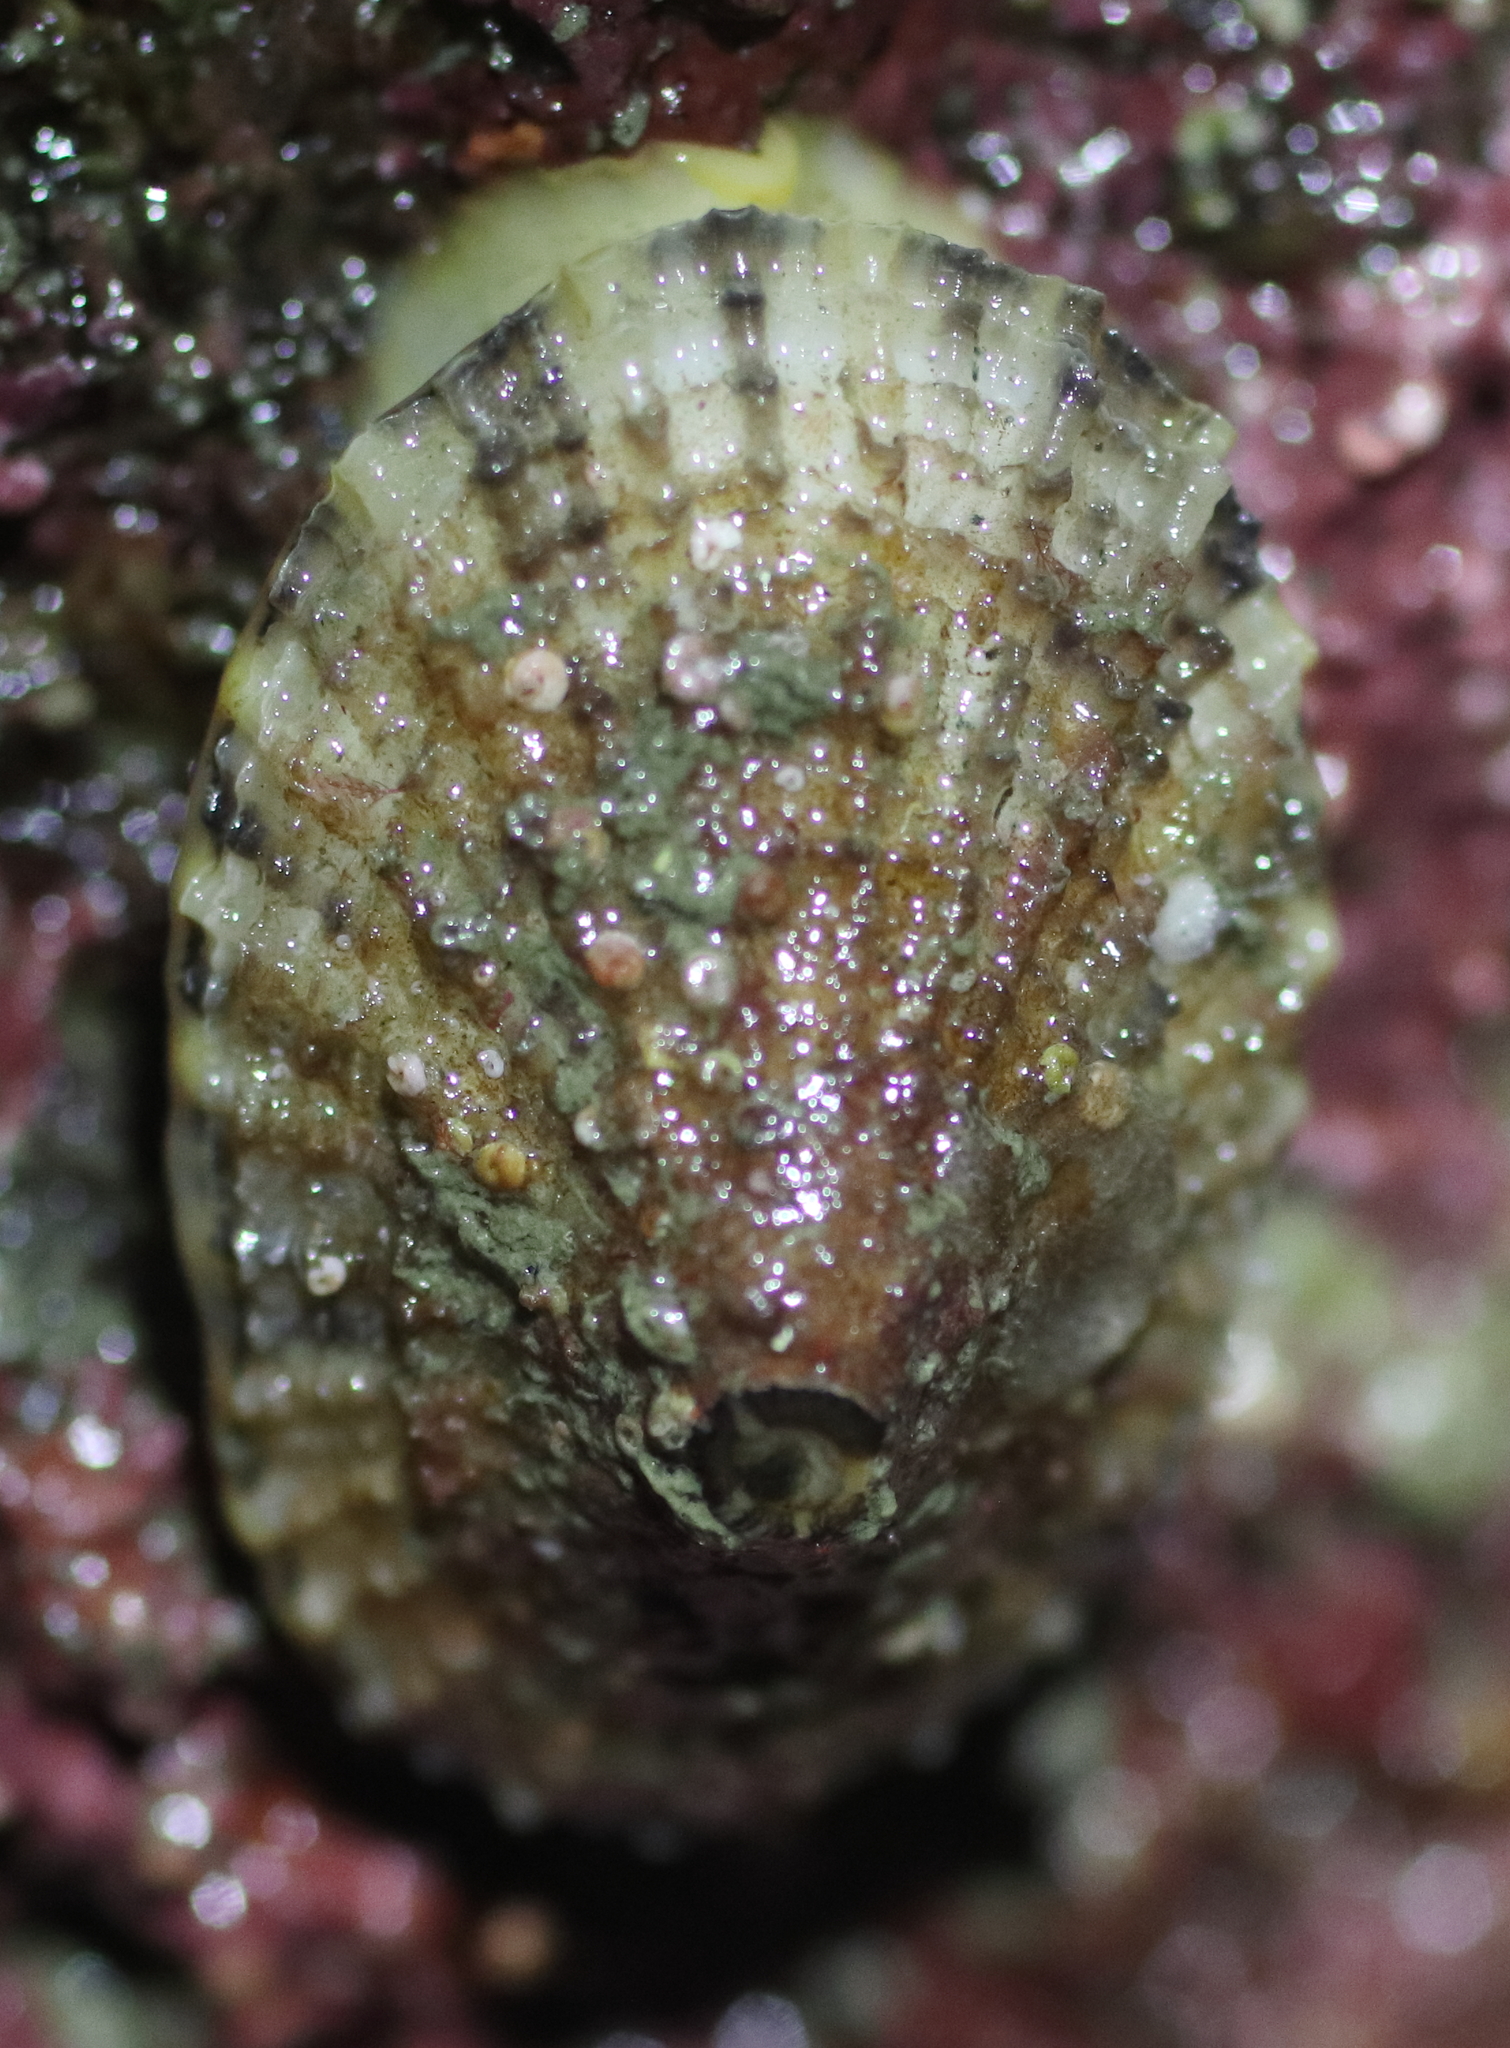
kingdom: Animalia
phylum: Mollusca
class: Gastropoda
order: Lepetellida
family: Fissurellidae
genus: Diodora
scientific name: Diodora aspera
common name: Rough keyhole limpet
